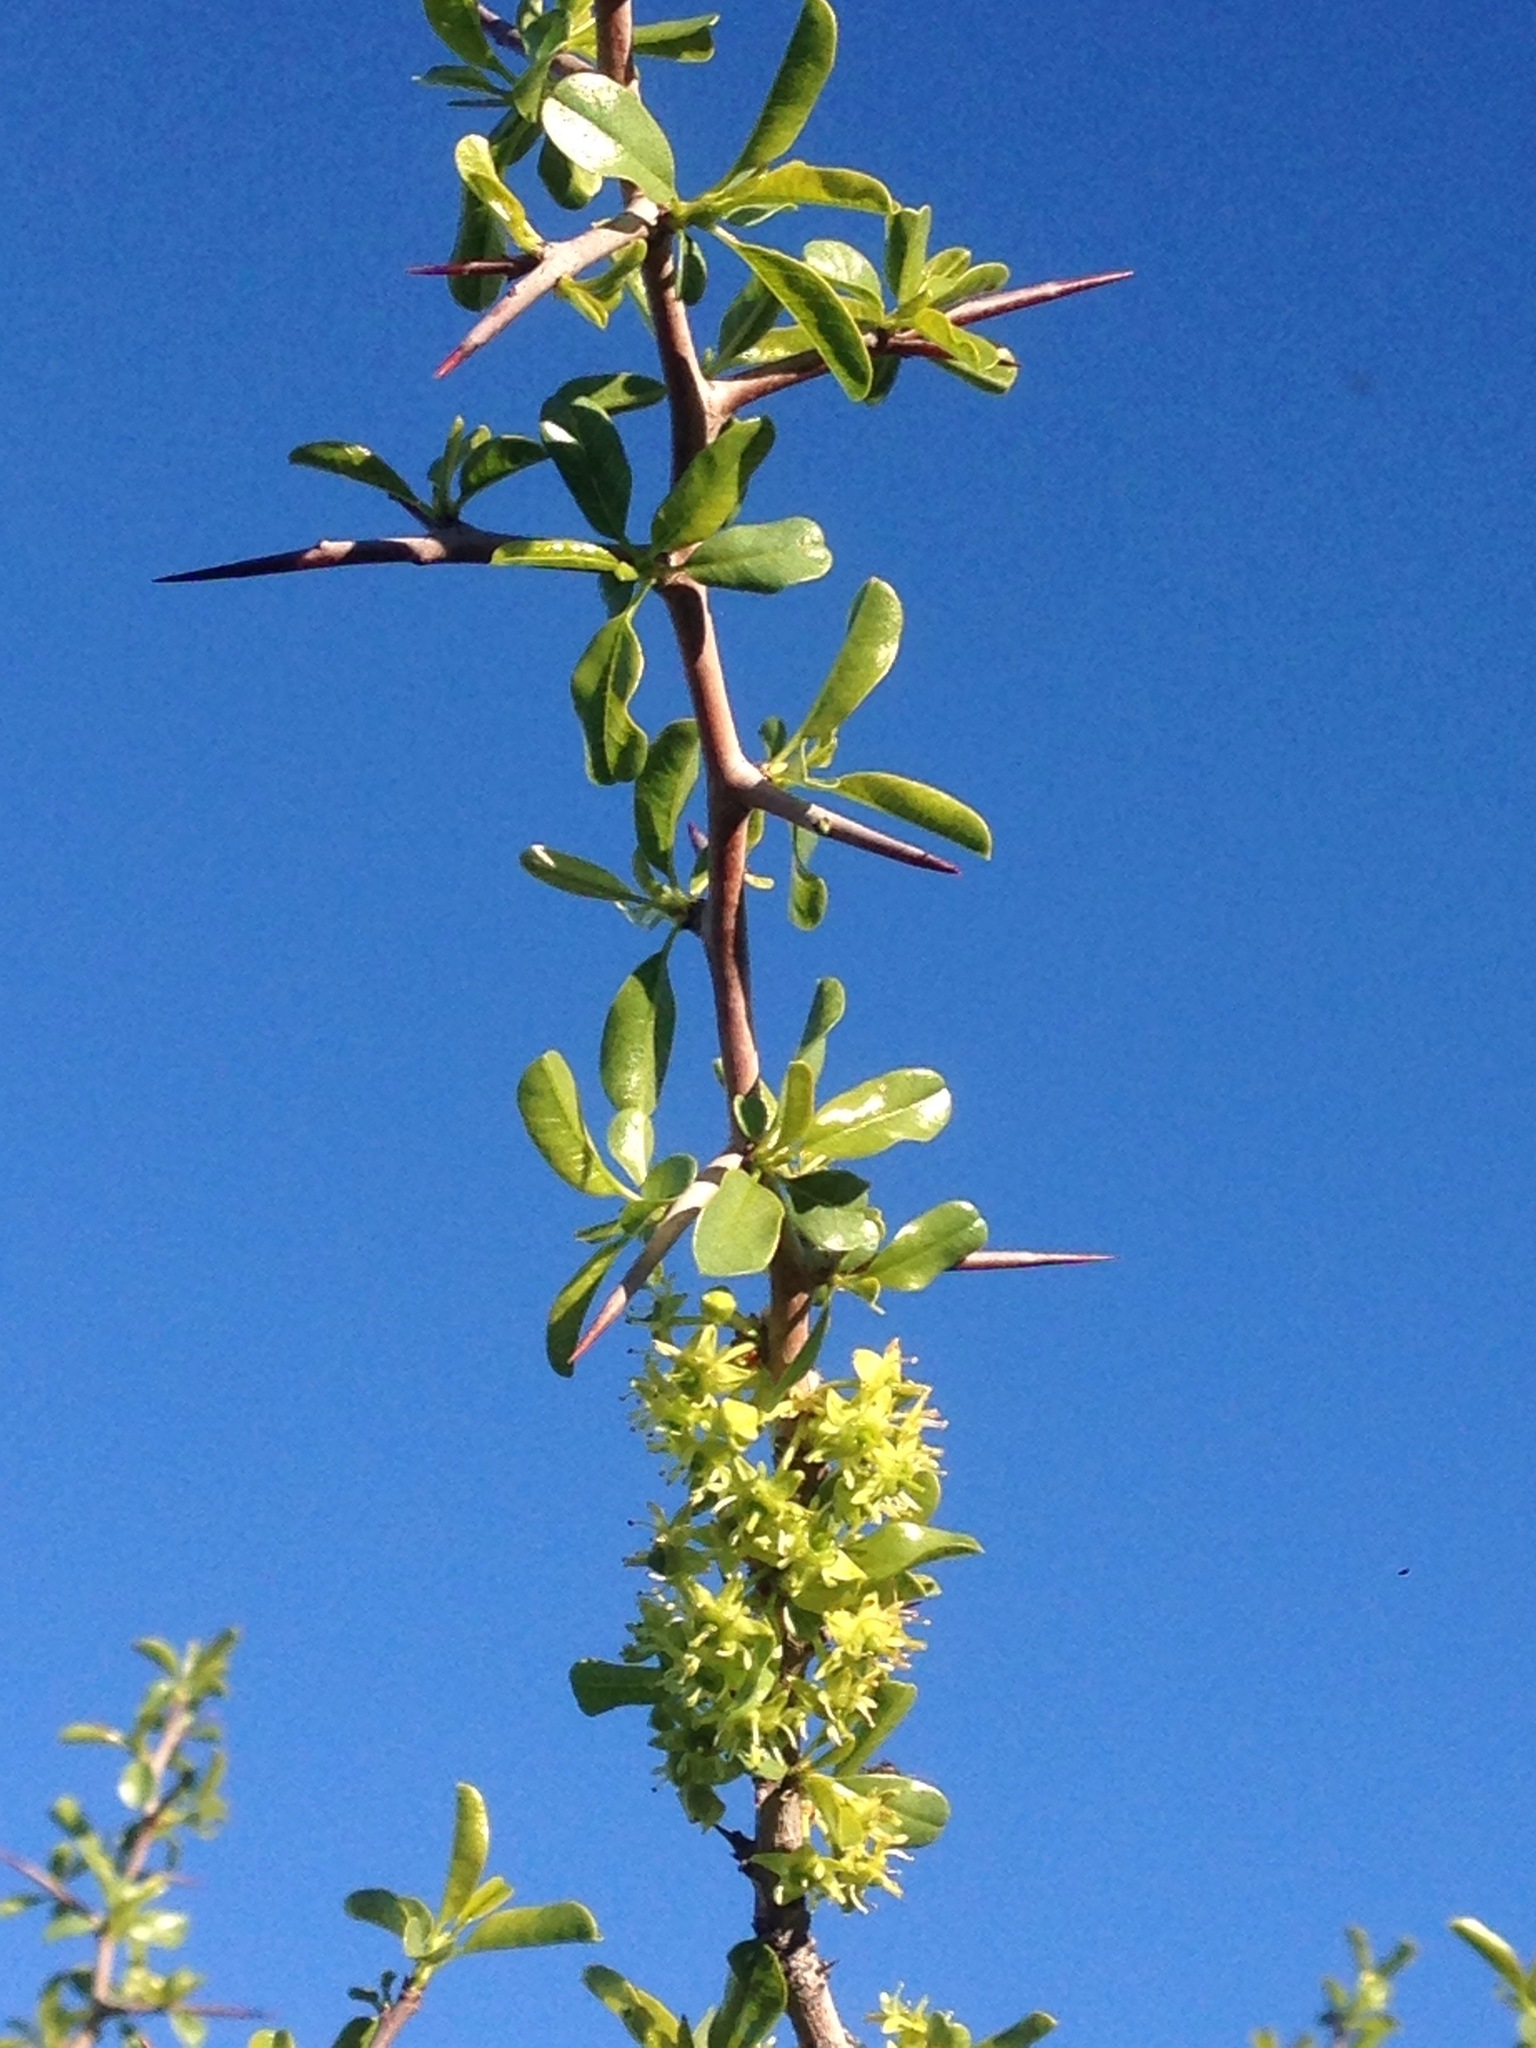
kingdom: Plantae
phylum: Tracheophyta
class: Magnoliopsida
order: Rosales
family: Rhamnaceae
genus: Pseudoziziphus
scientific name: Pseudoziziphus parryi
